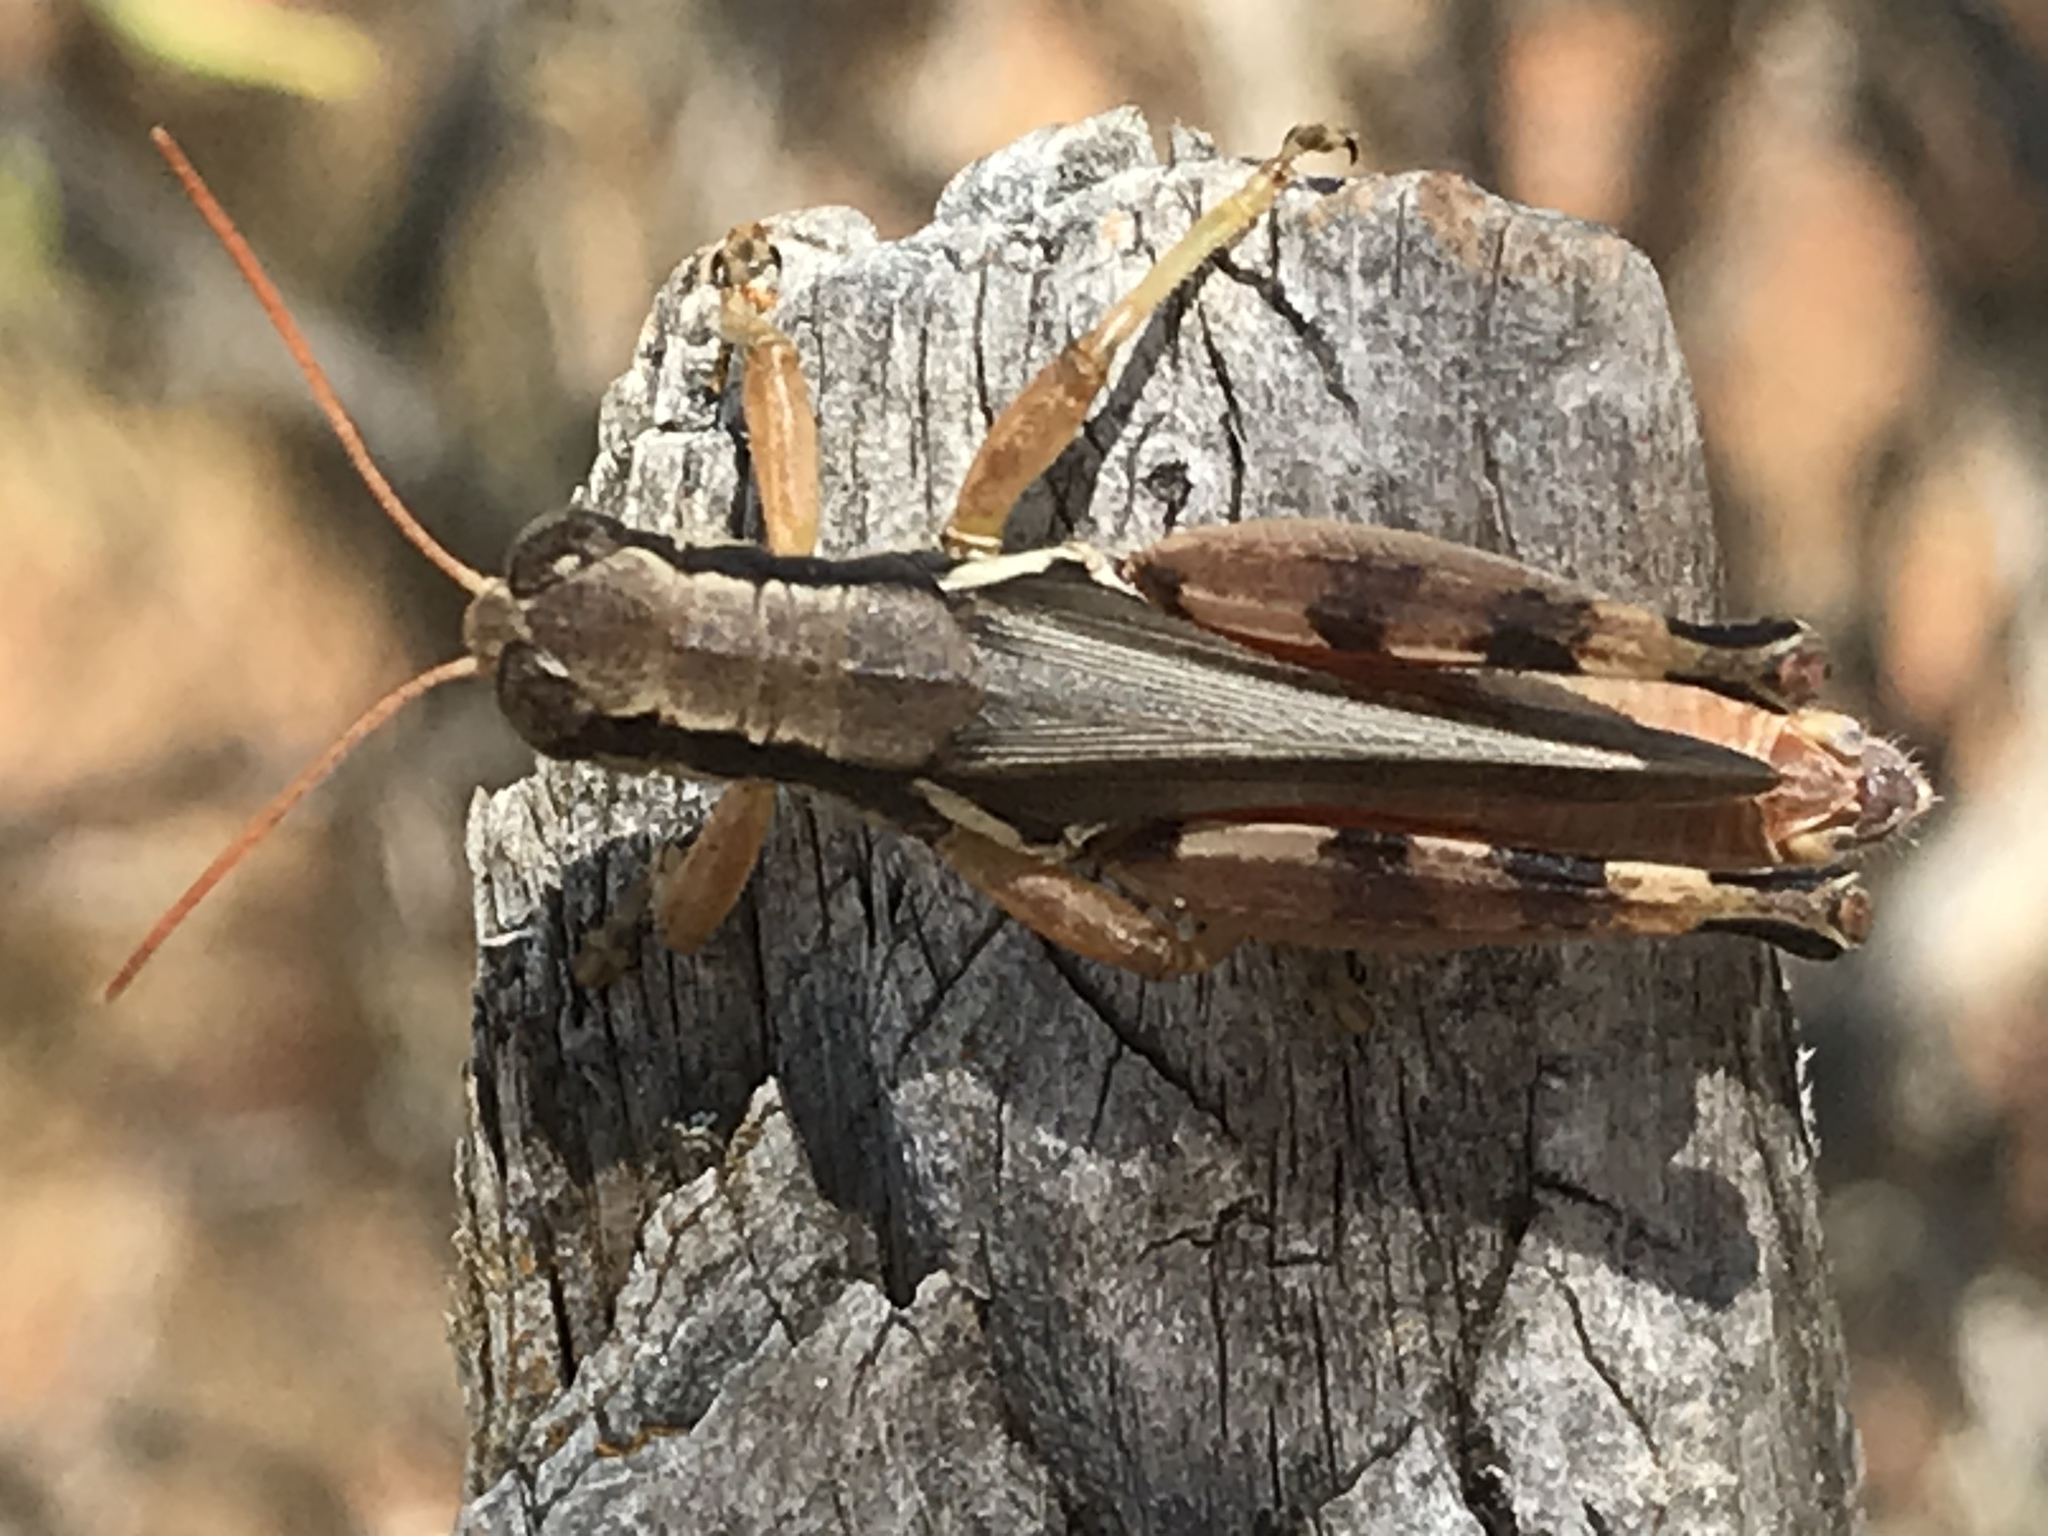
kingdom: Animalia
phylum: Arthropoda
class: Insecta
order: Orthoptera
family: Acrididae
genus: Melanoplus
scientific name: Melanoplus glaucipes
